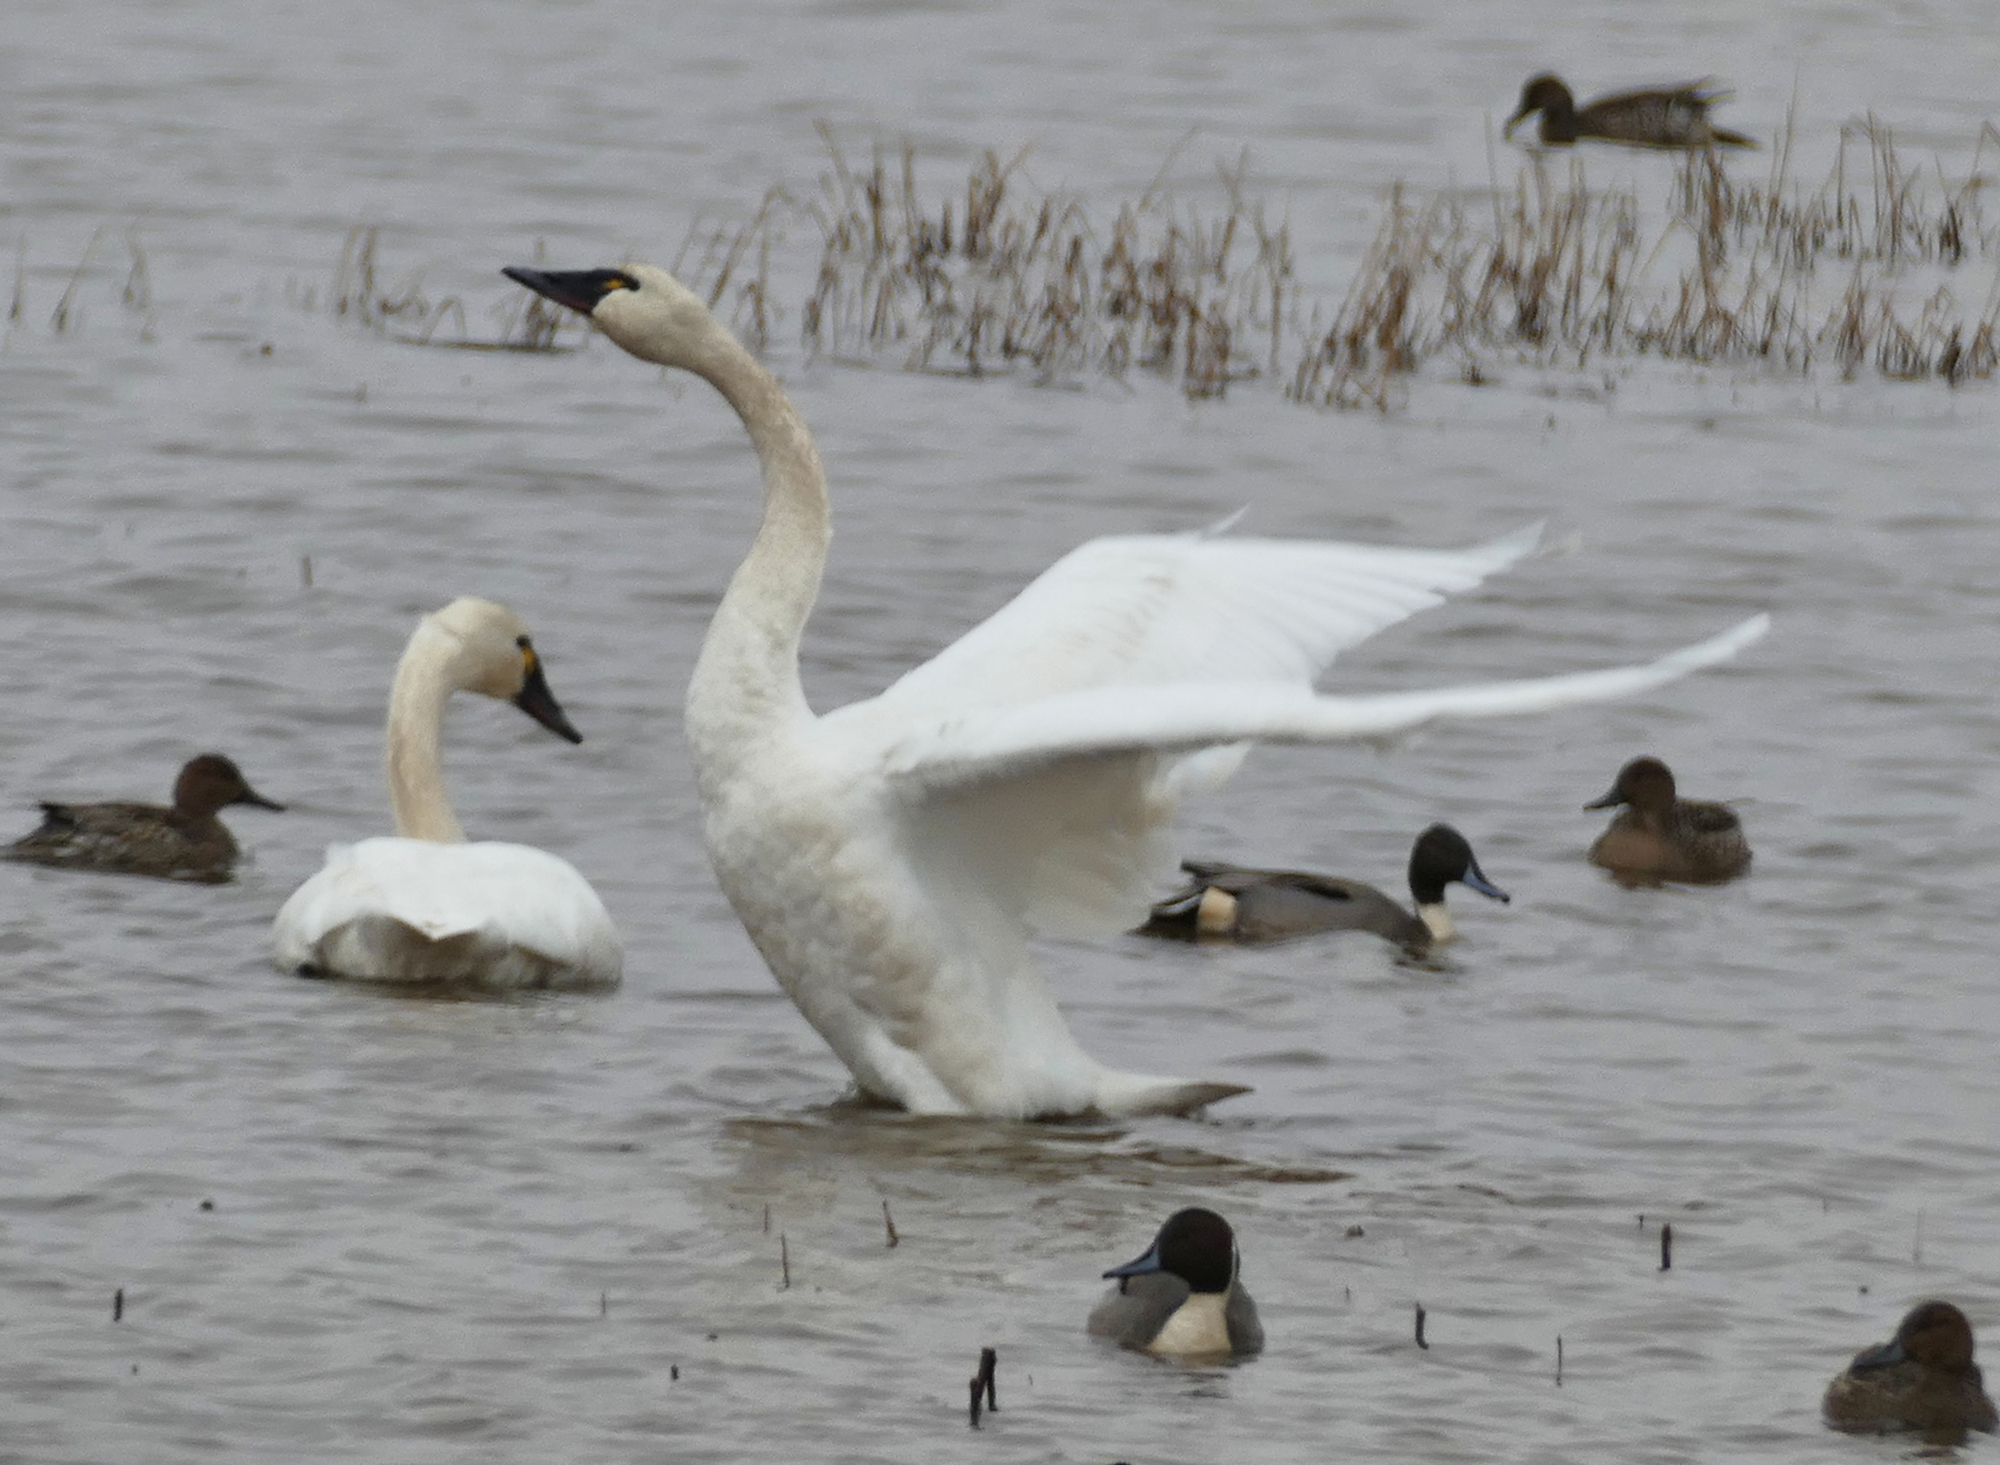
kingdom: Animalia
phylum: Chordata
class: Aves
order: Anseriformes
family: Anatidae
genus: Cygnus
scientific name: Cygnus columbianus
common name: Tundra swan
